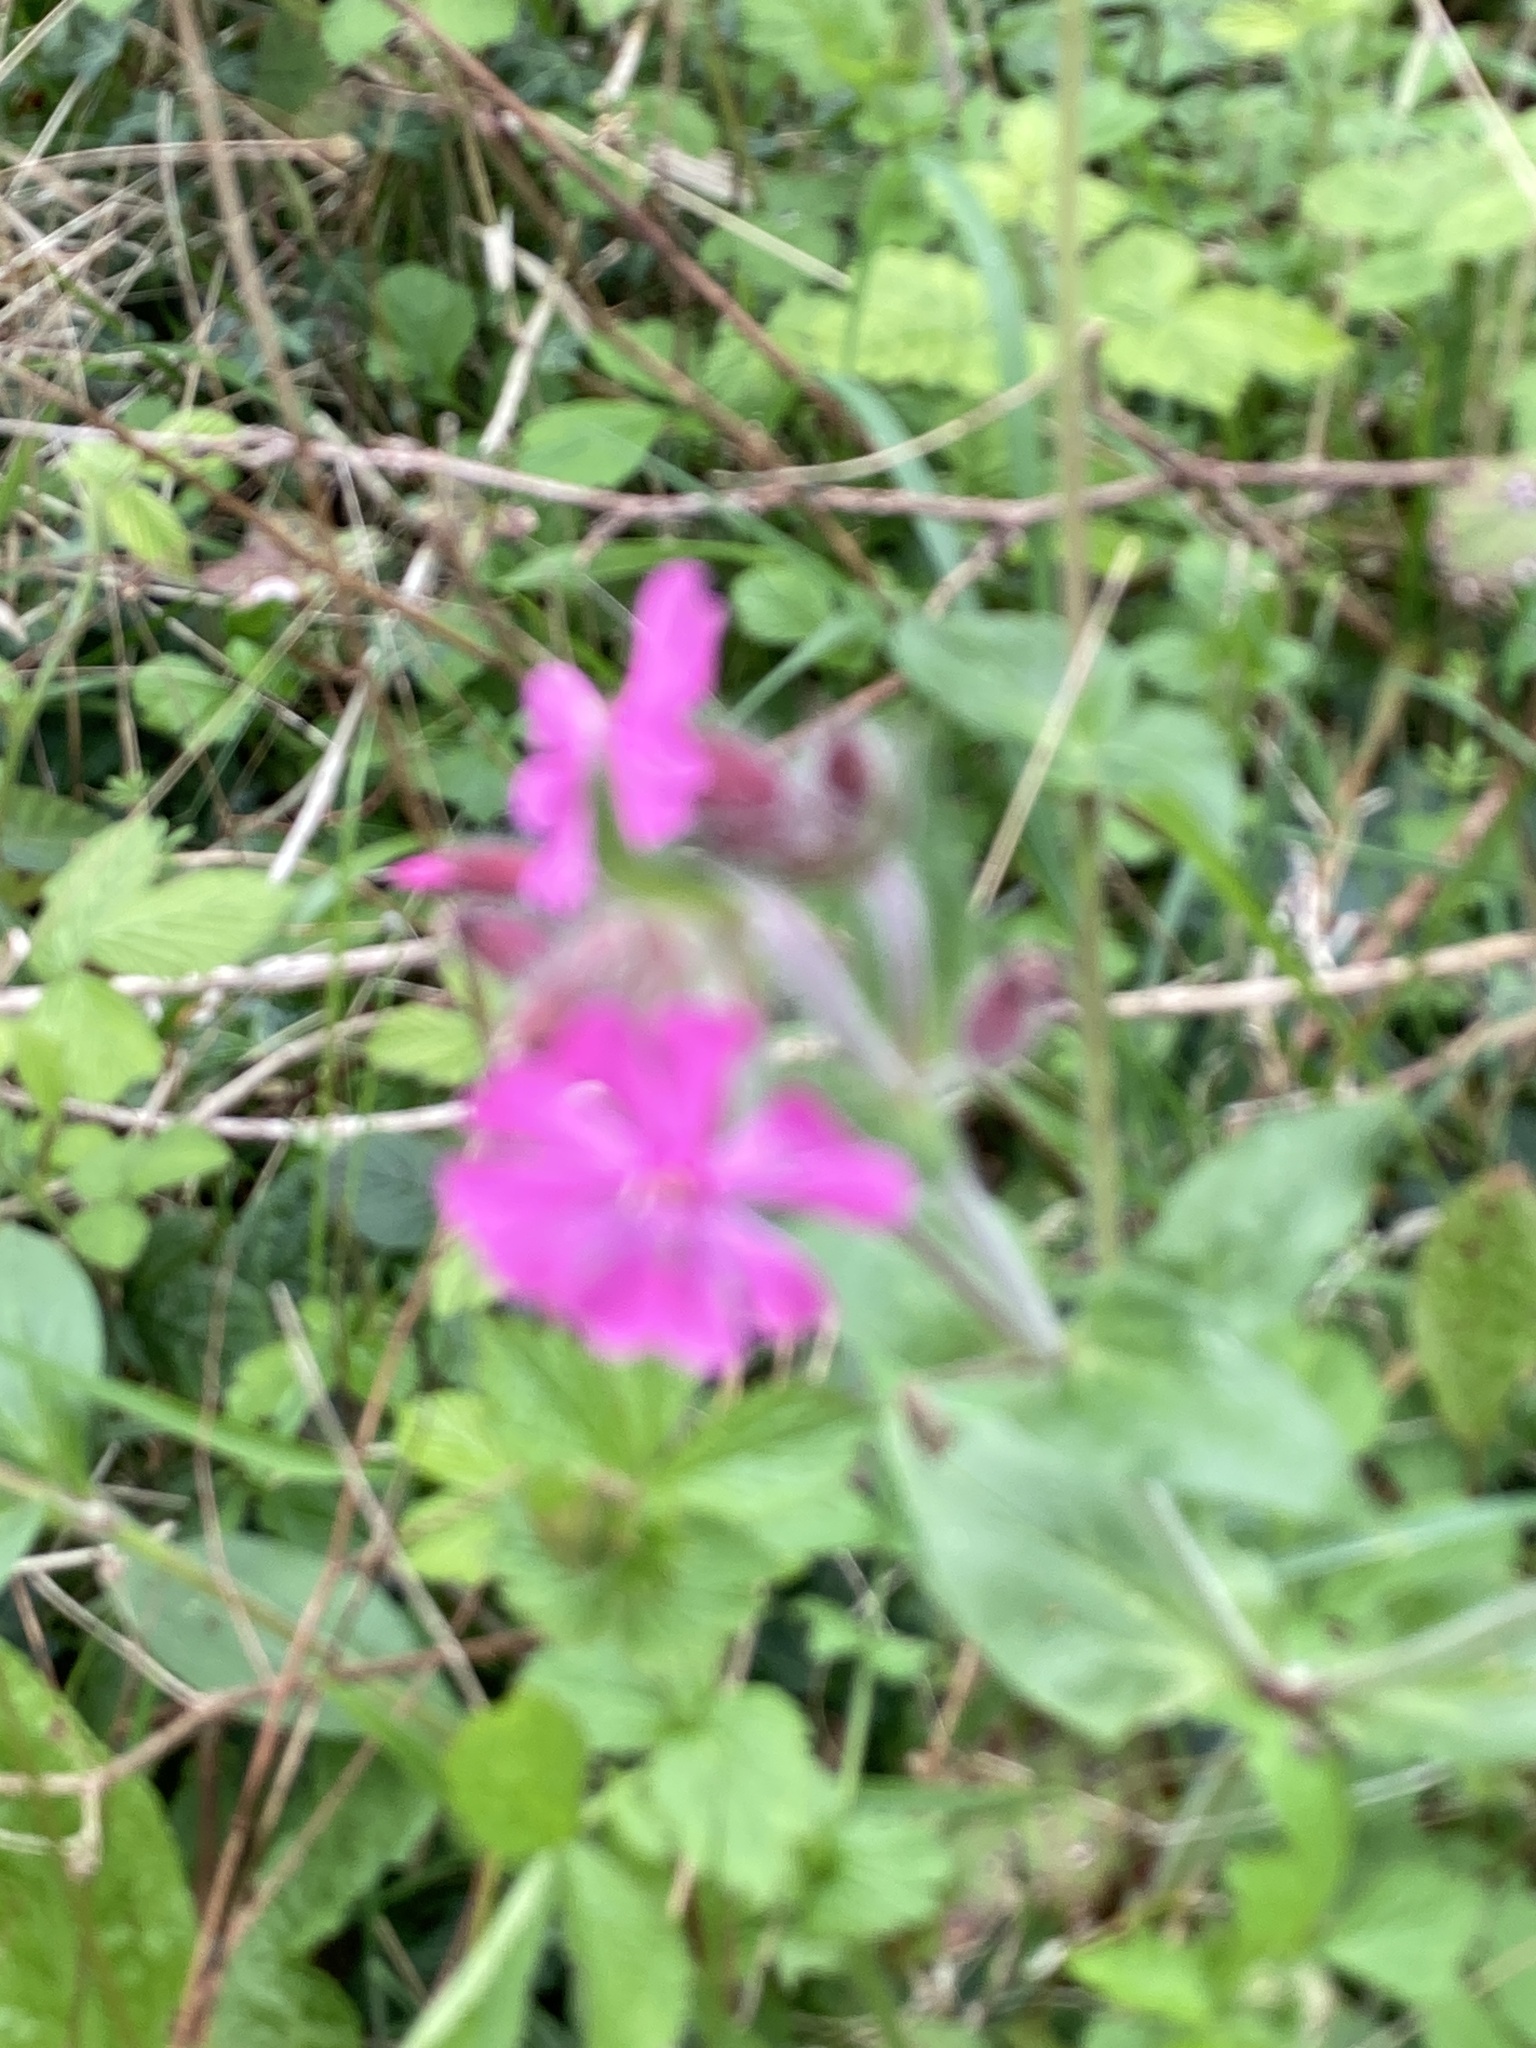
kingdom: Plantae
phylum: Tracheophyta
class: Magnoliopsida
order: Caryophyllales
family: Caryophyllaceae
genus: Silene
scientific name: Silene dioica
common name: Red campion
